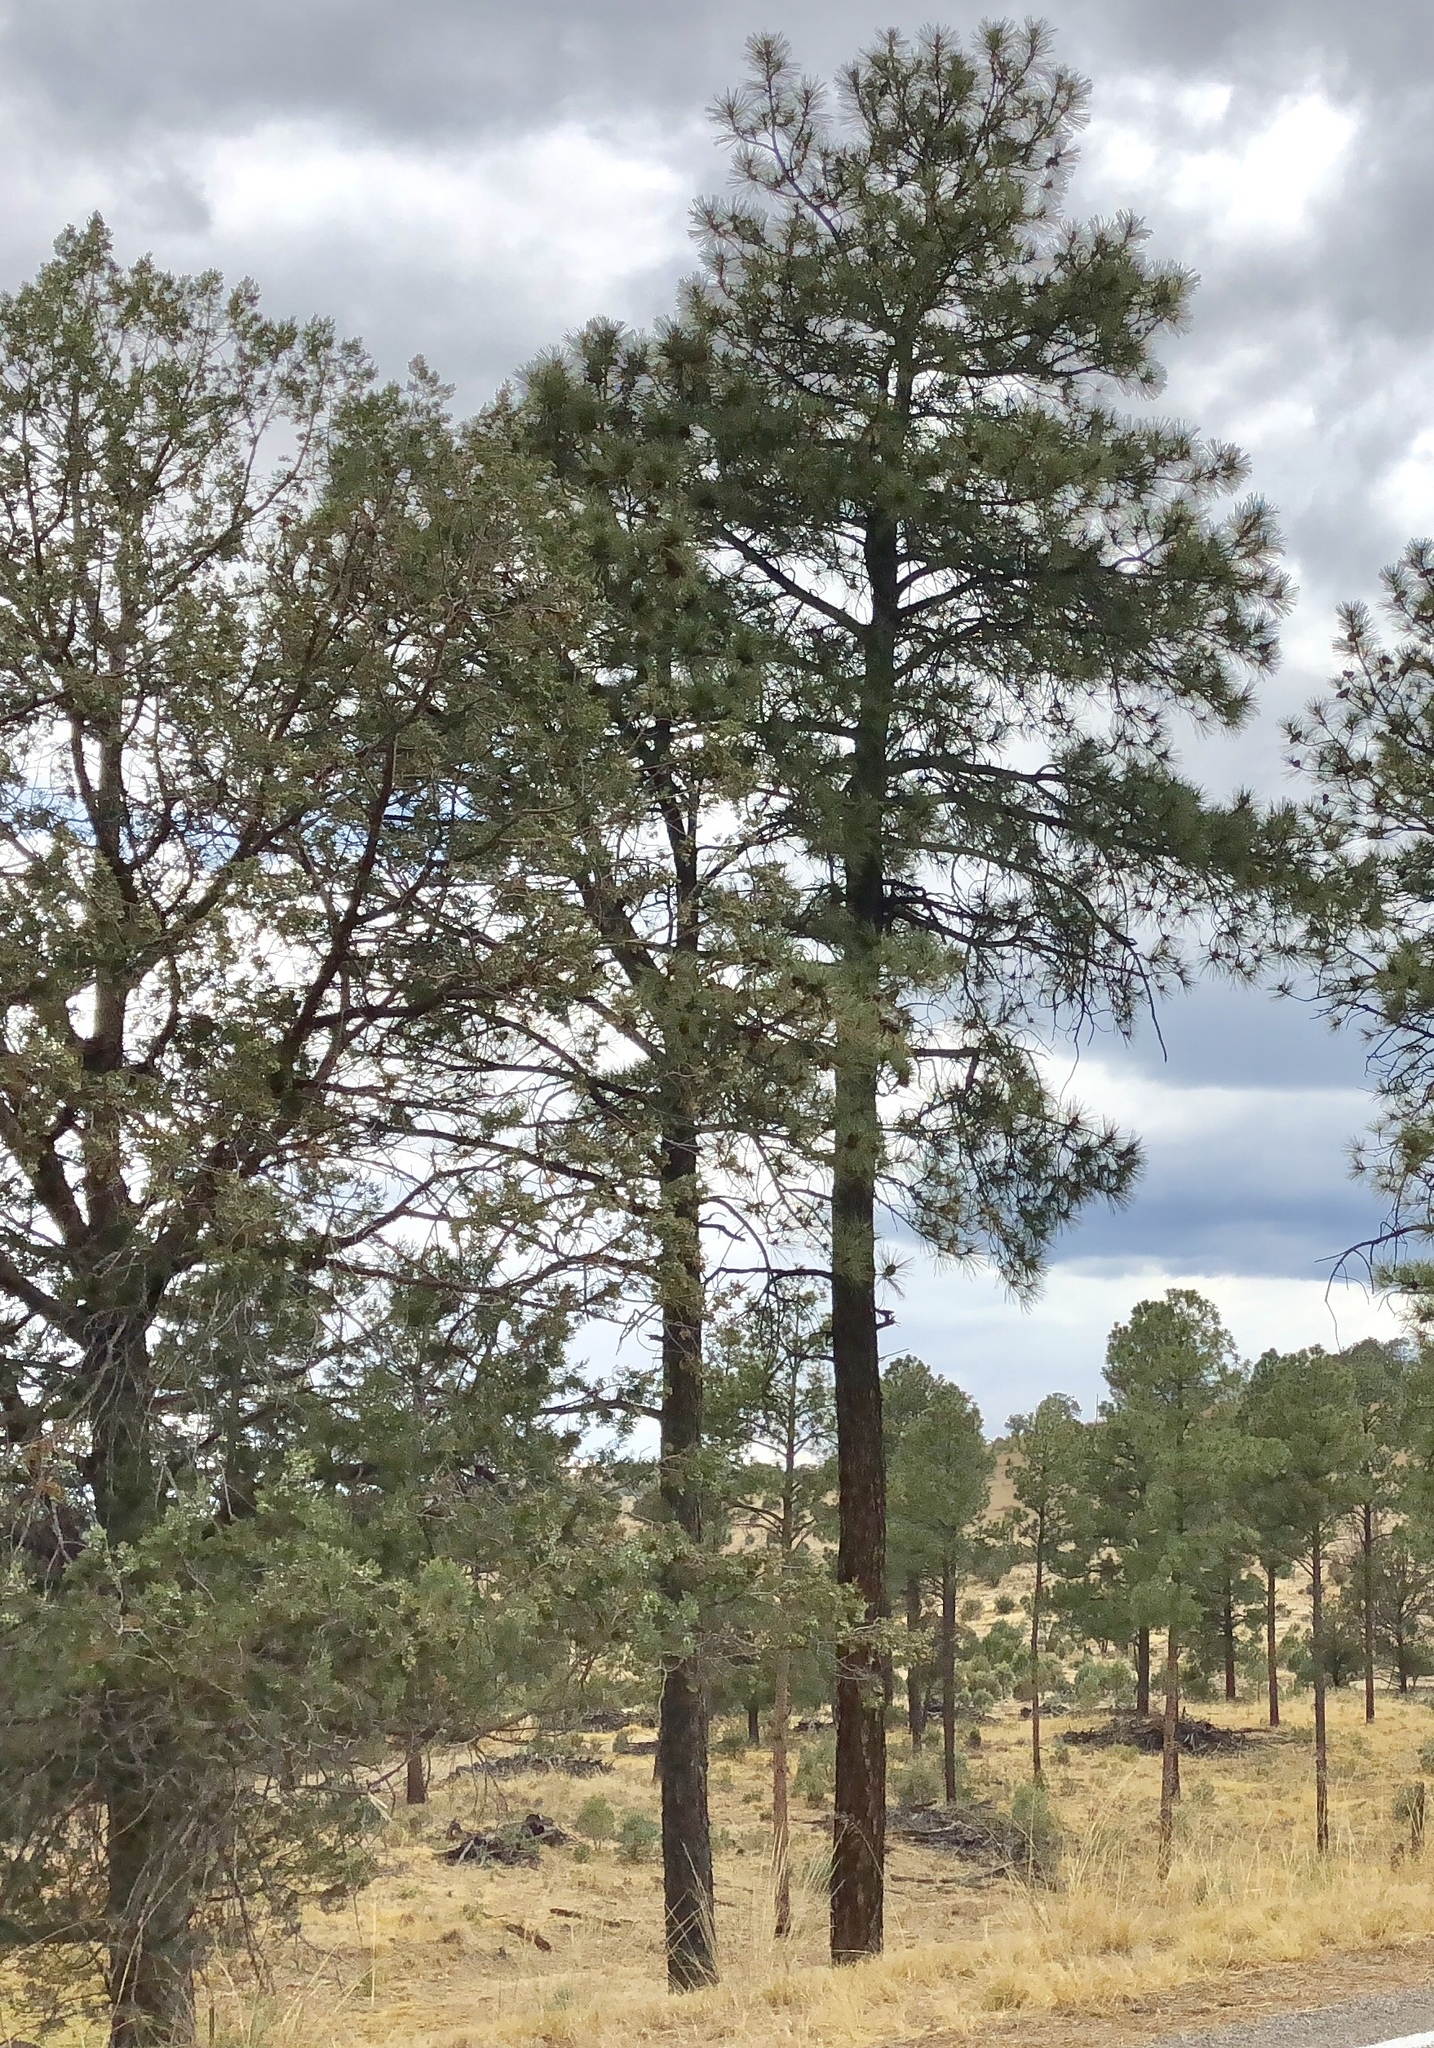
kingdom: Plantae
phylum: Tracheophyta
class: Pinopsida
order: Pinales
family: Pinaceae
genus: Pinus
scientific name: Pinus ponderosa
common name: Western yellow-pine
